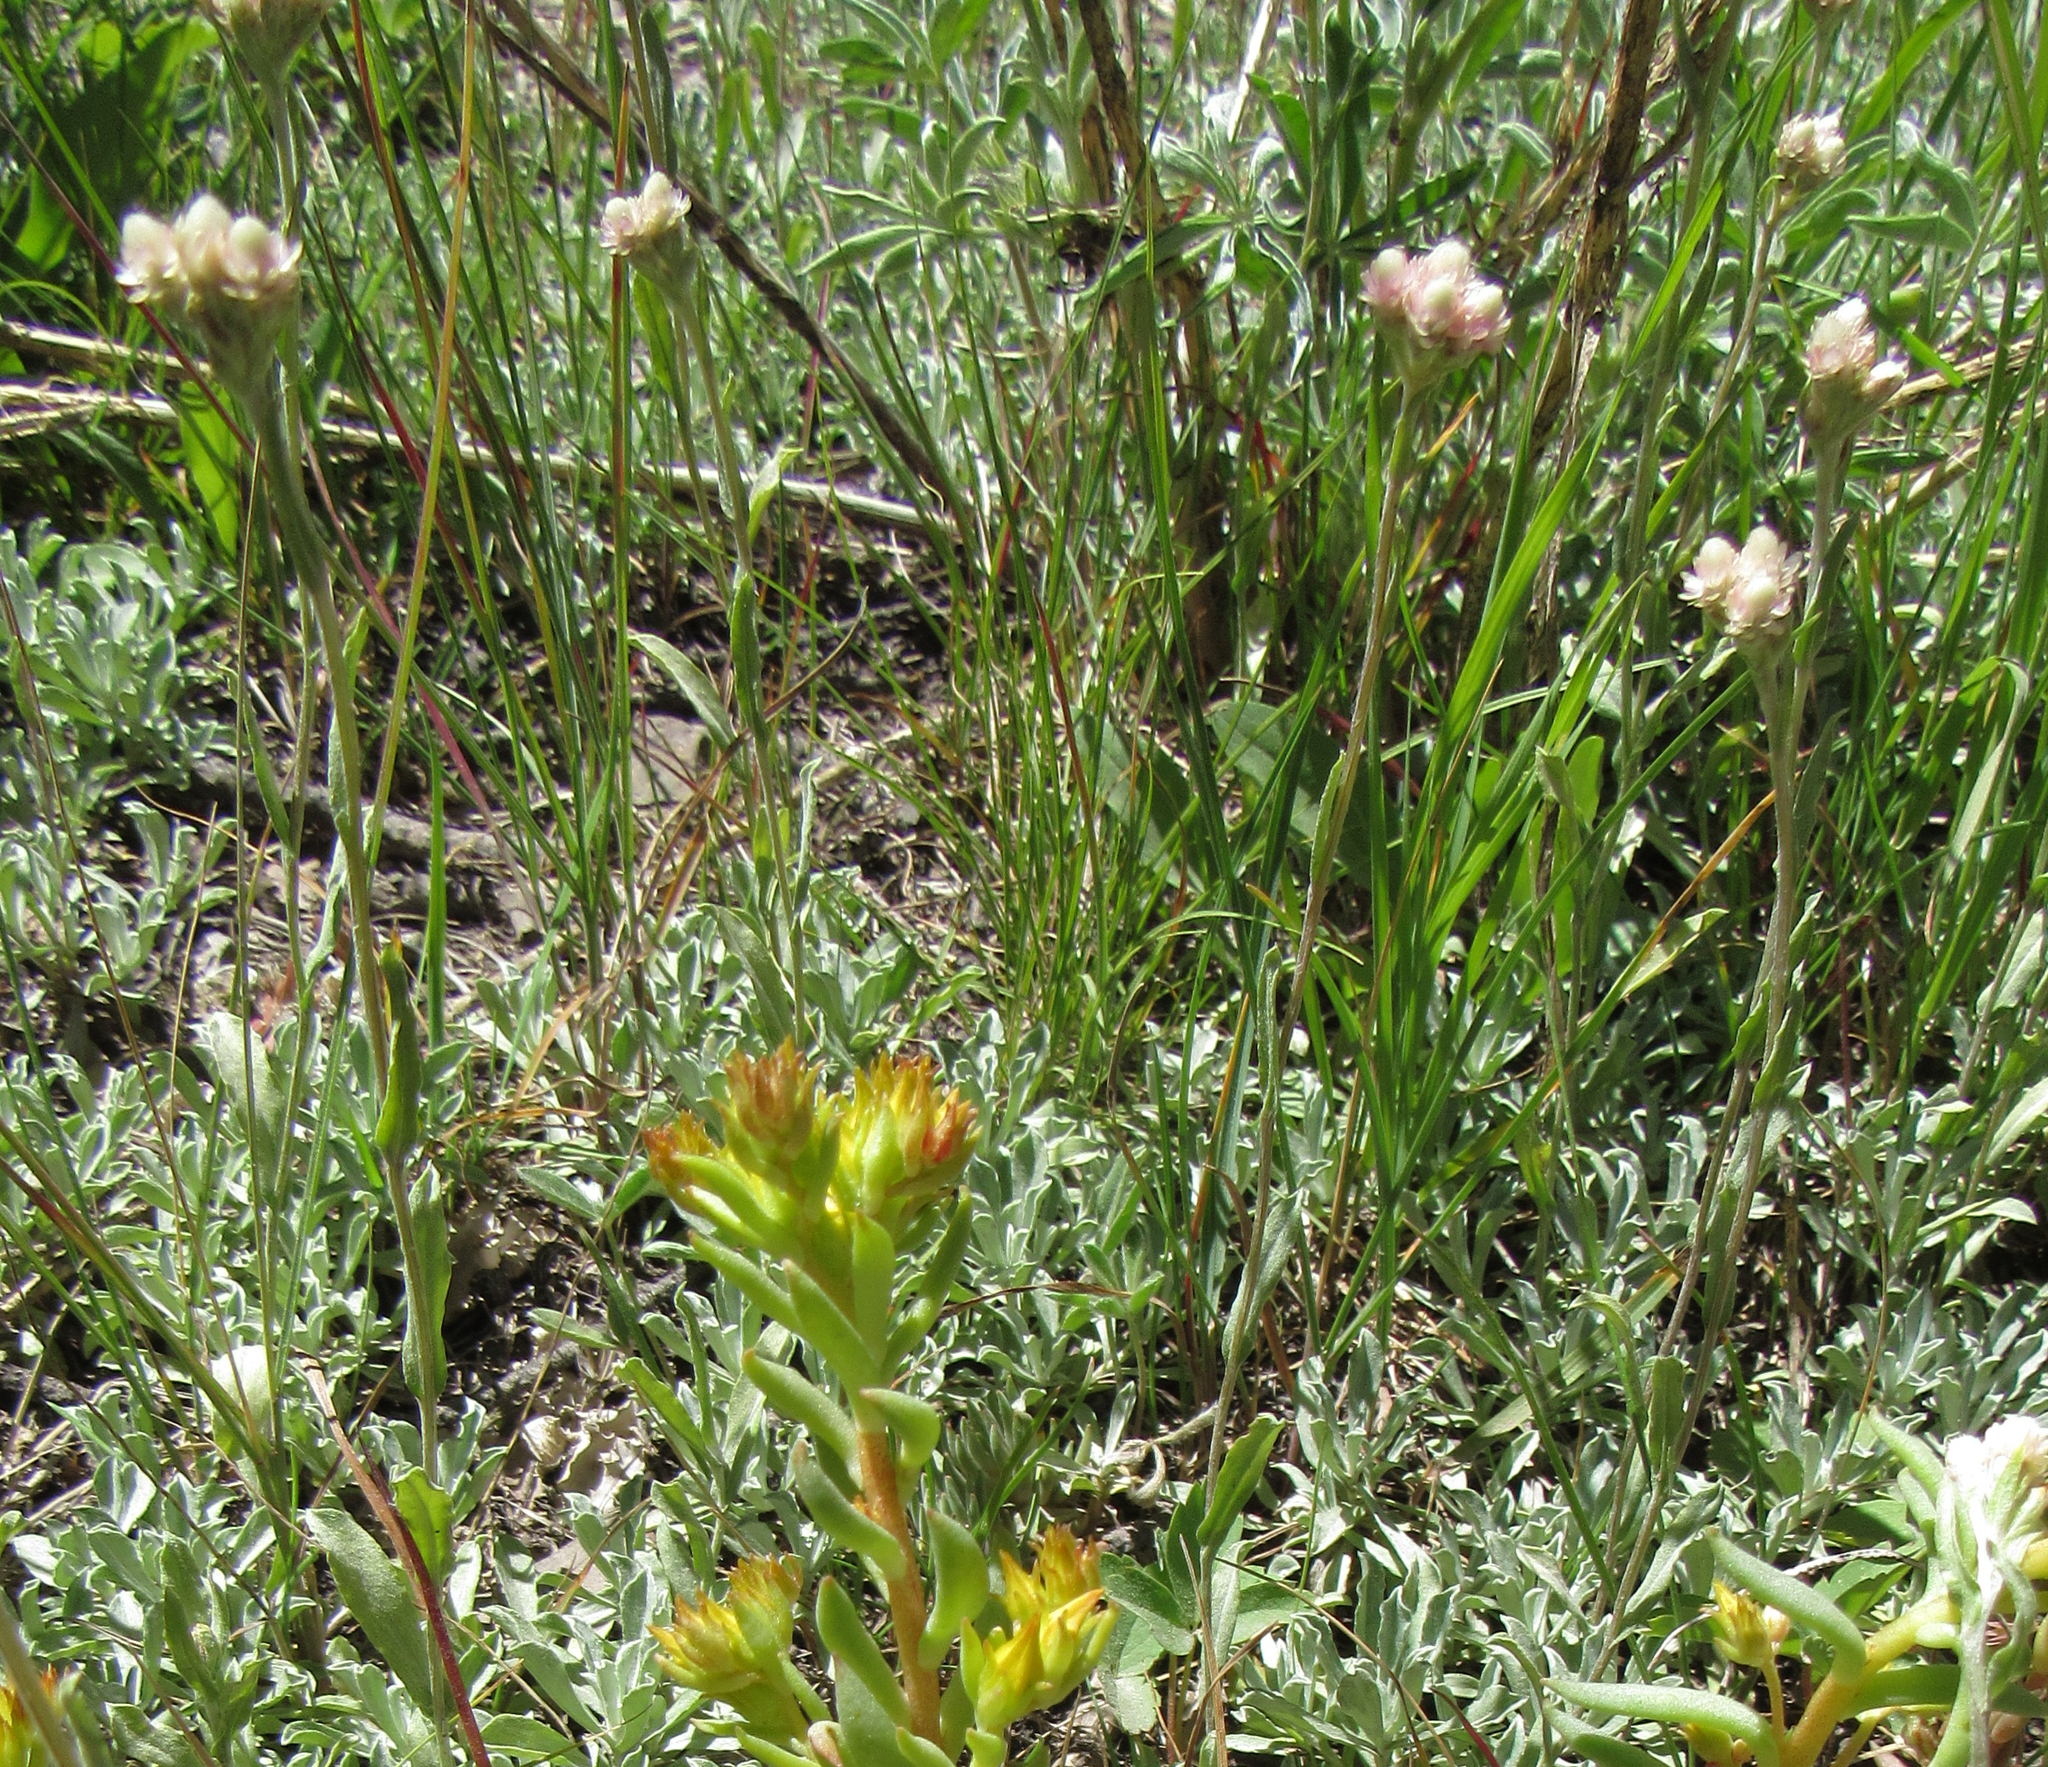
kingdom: Plantae
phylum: Tracheophyta
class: Magnoliopsida
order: Asterales
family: Asteraceae
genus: Antennaria
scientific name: Antennaria rosea
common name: Rosy pussytoes
